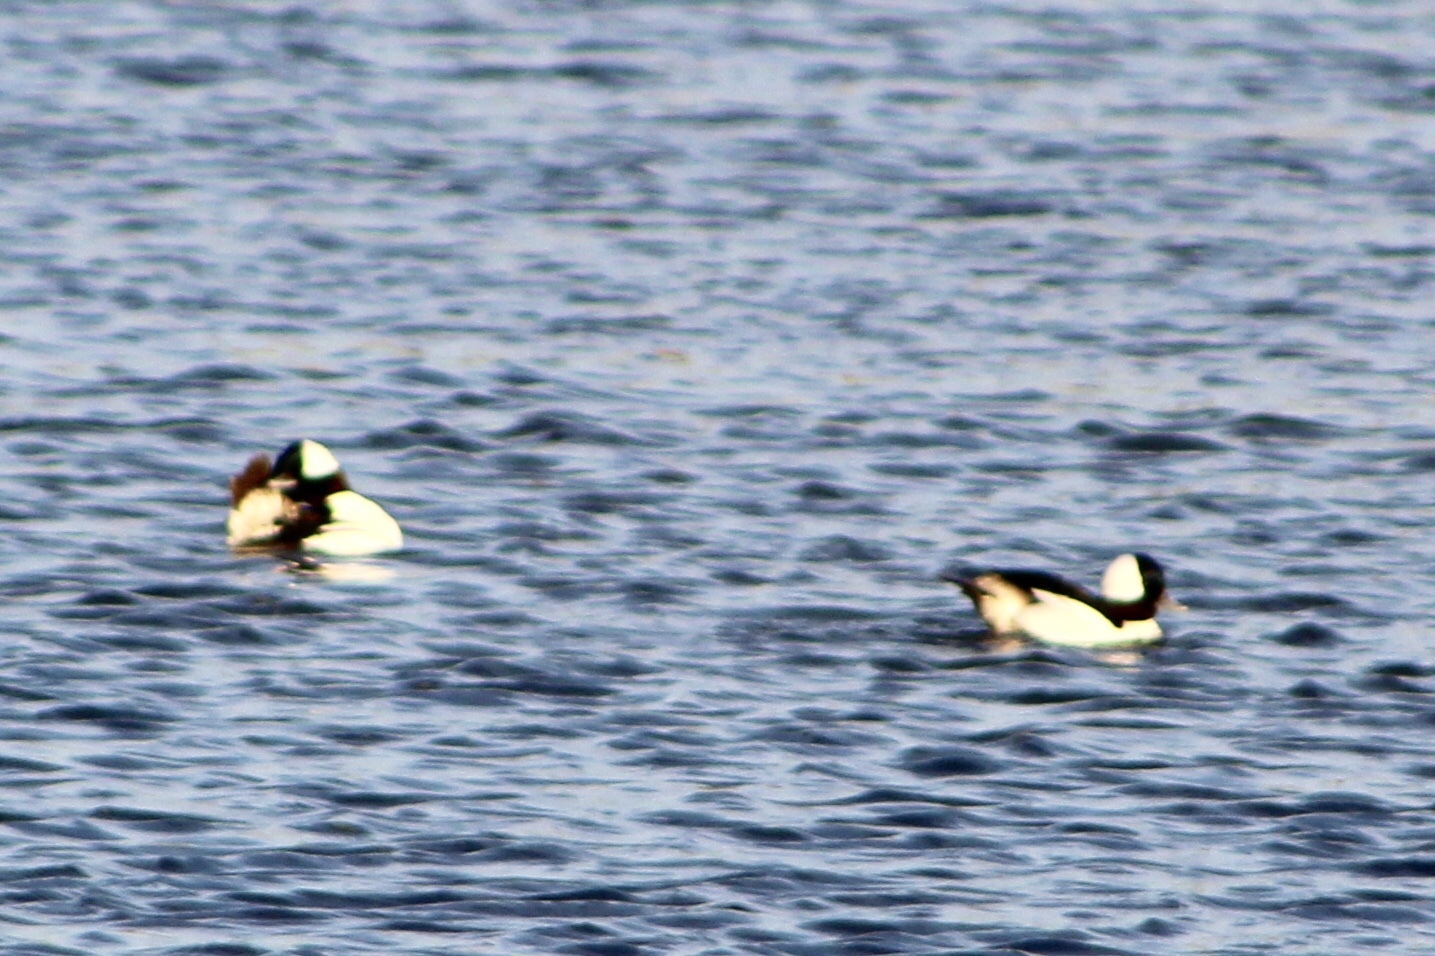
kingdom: Animalia
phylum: Chordata
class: Aves
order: Anseriformes
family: Anatidae
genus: Bucephala
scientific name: Bucephala albeola
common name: Bufflehead
